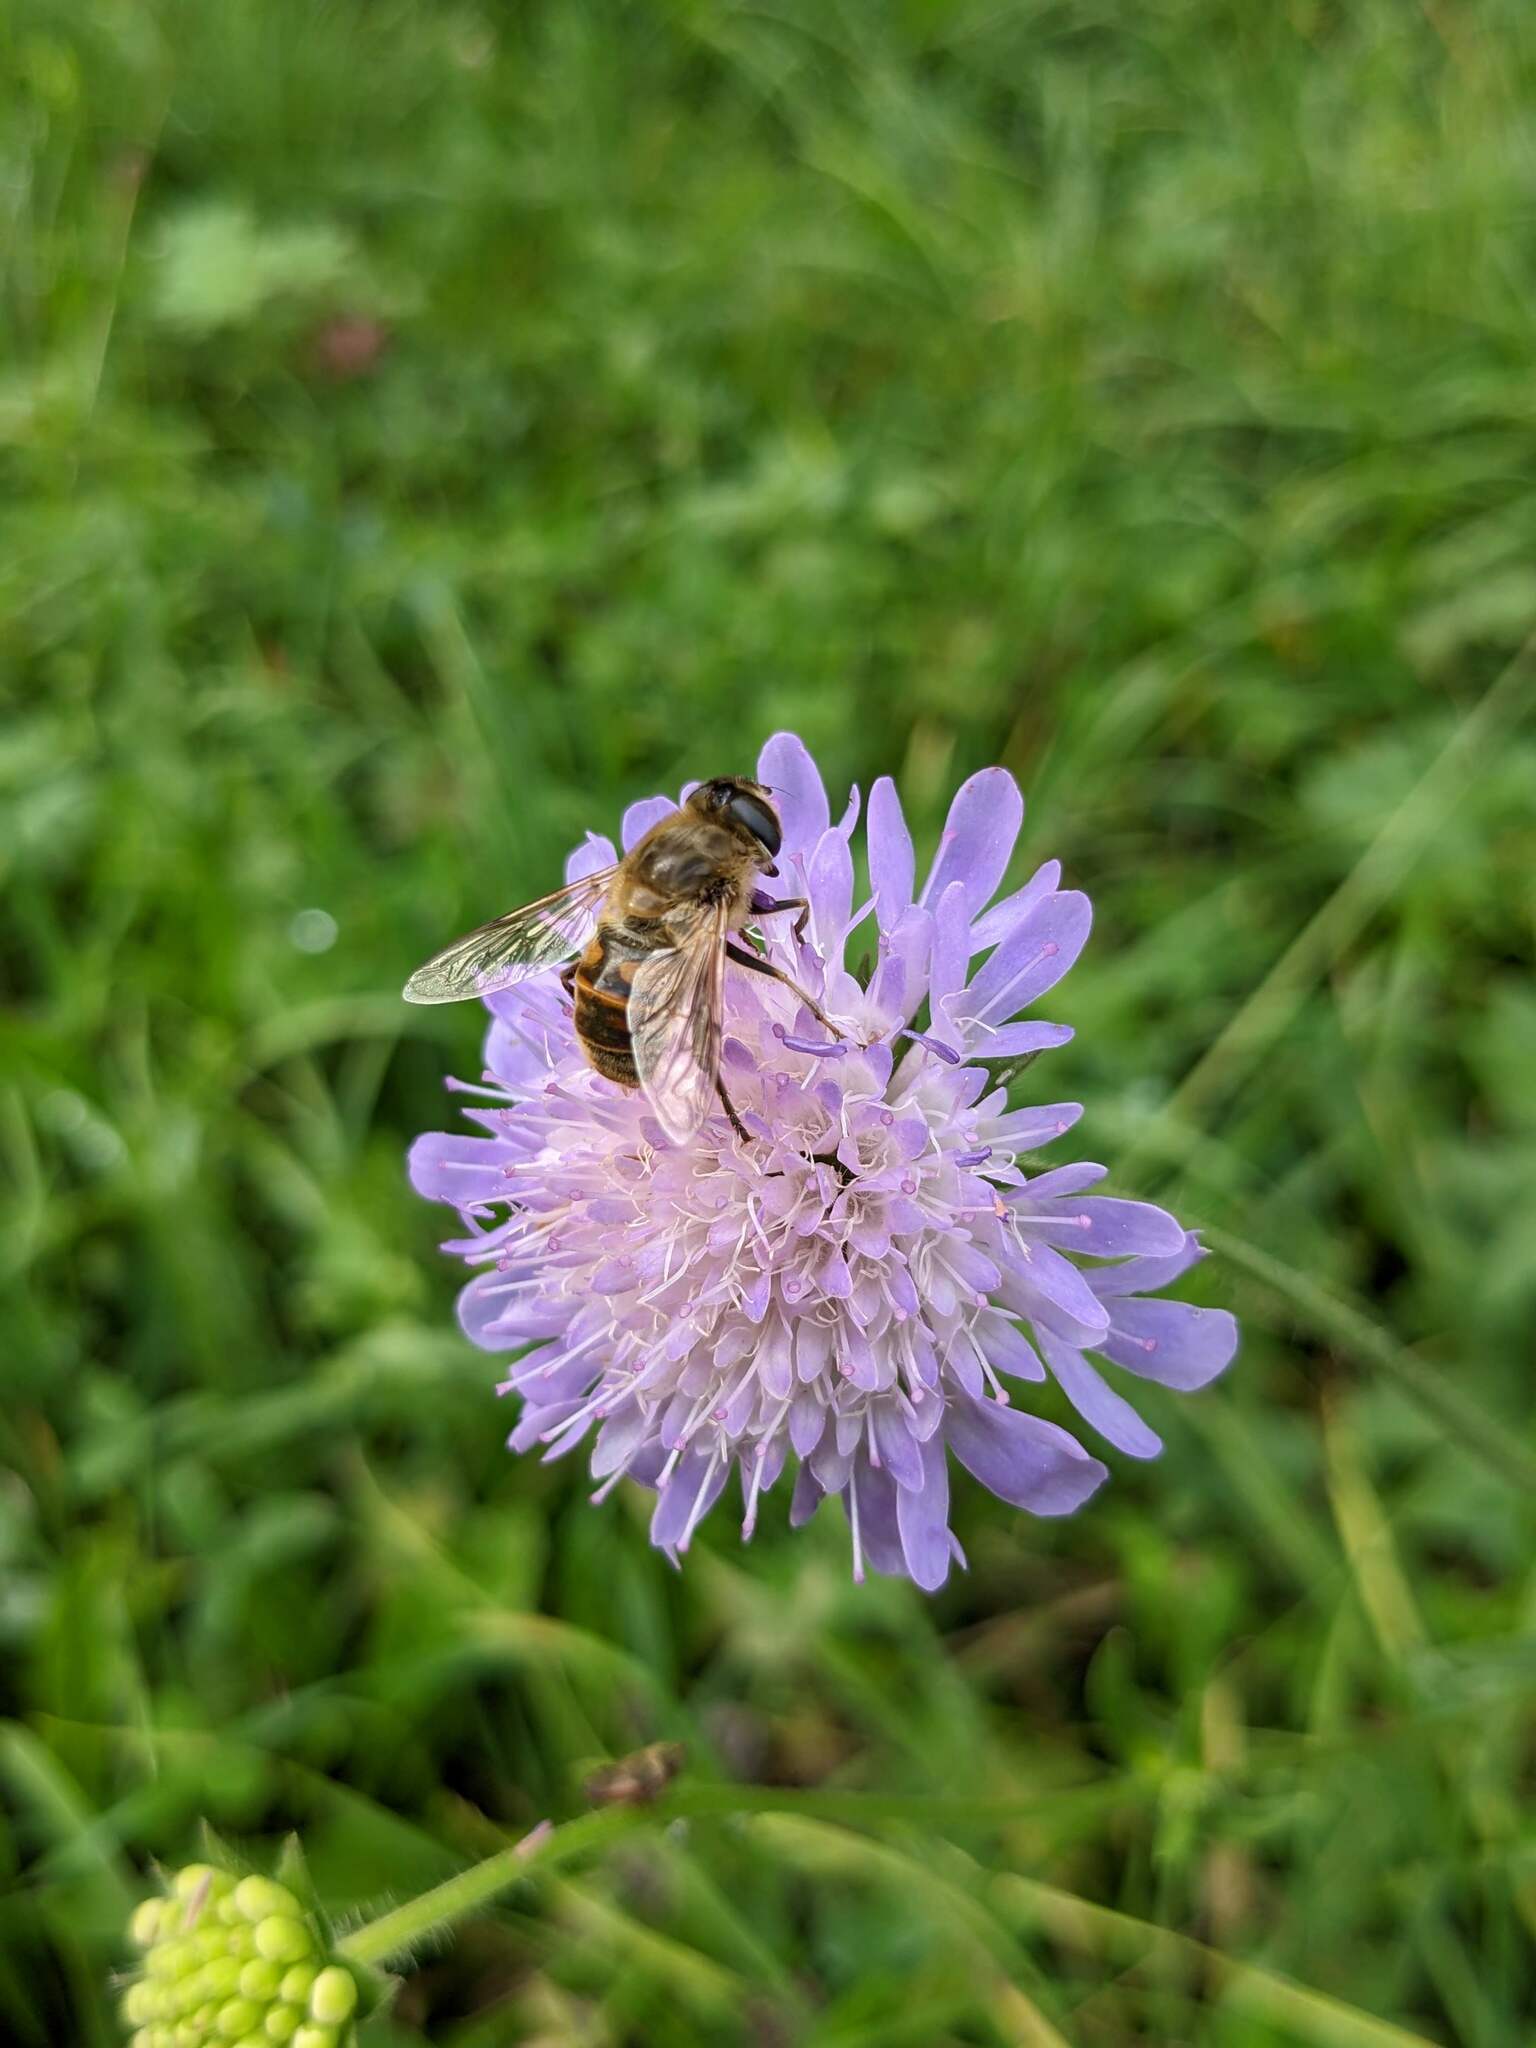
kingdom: Animalia
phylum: Arthropoda
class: Insecta
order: Diptera
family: Syrphidae
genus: Eristalis
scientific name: Eristalis tenax
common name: Drone fly
